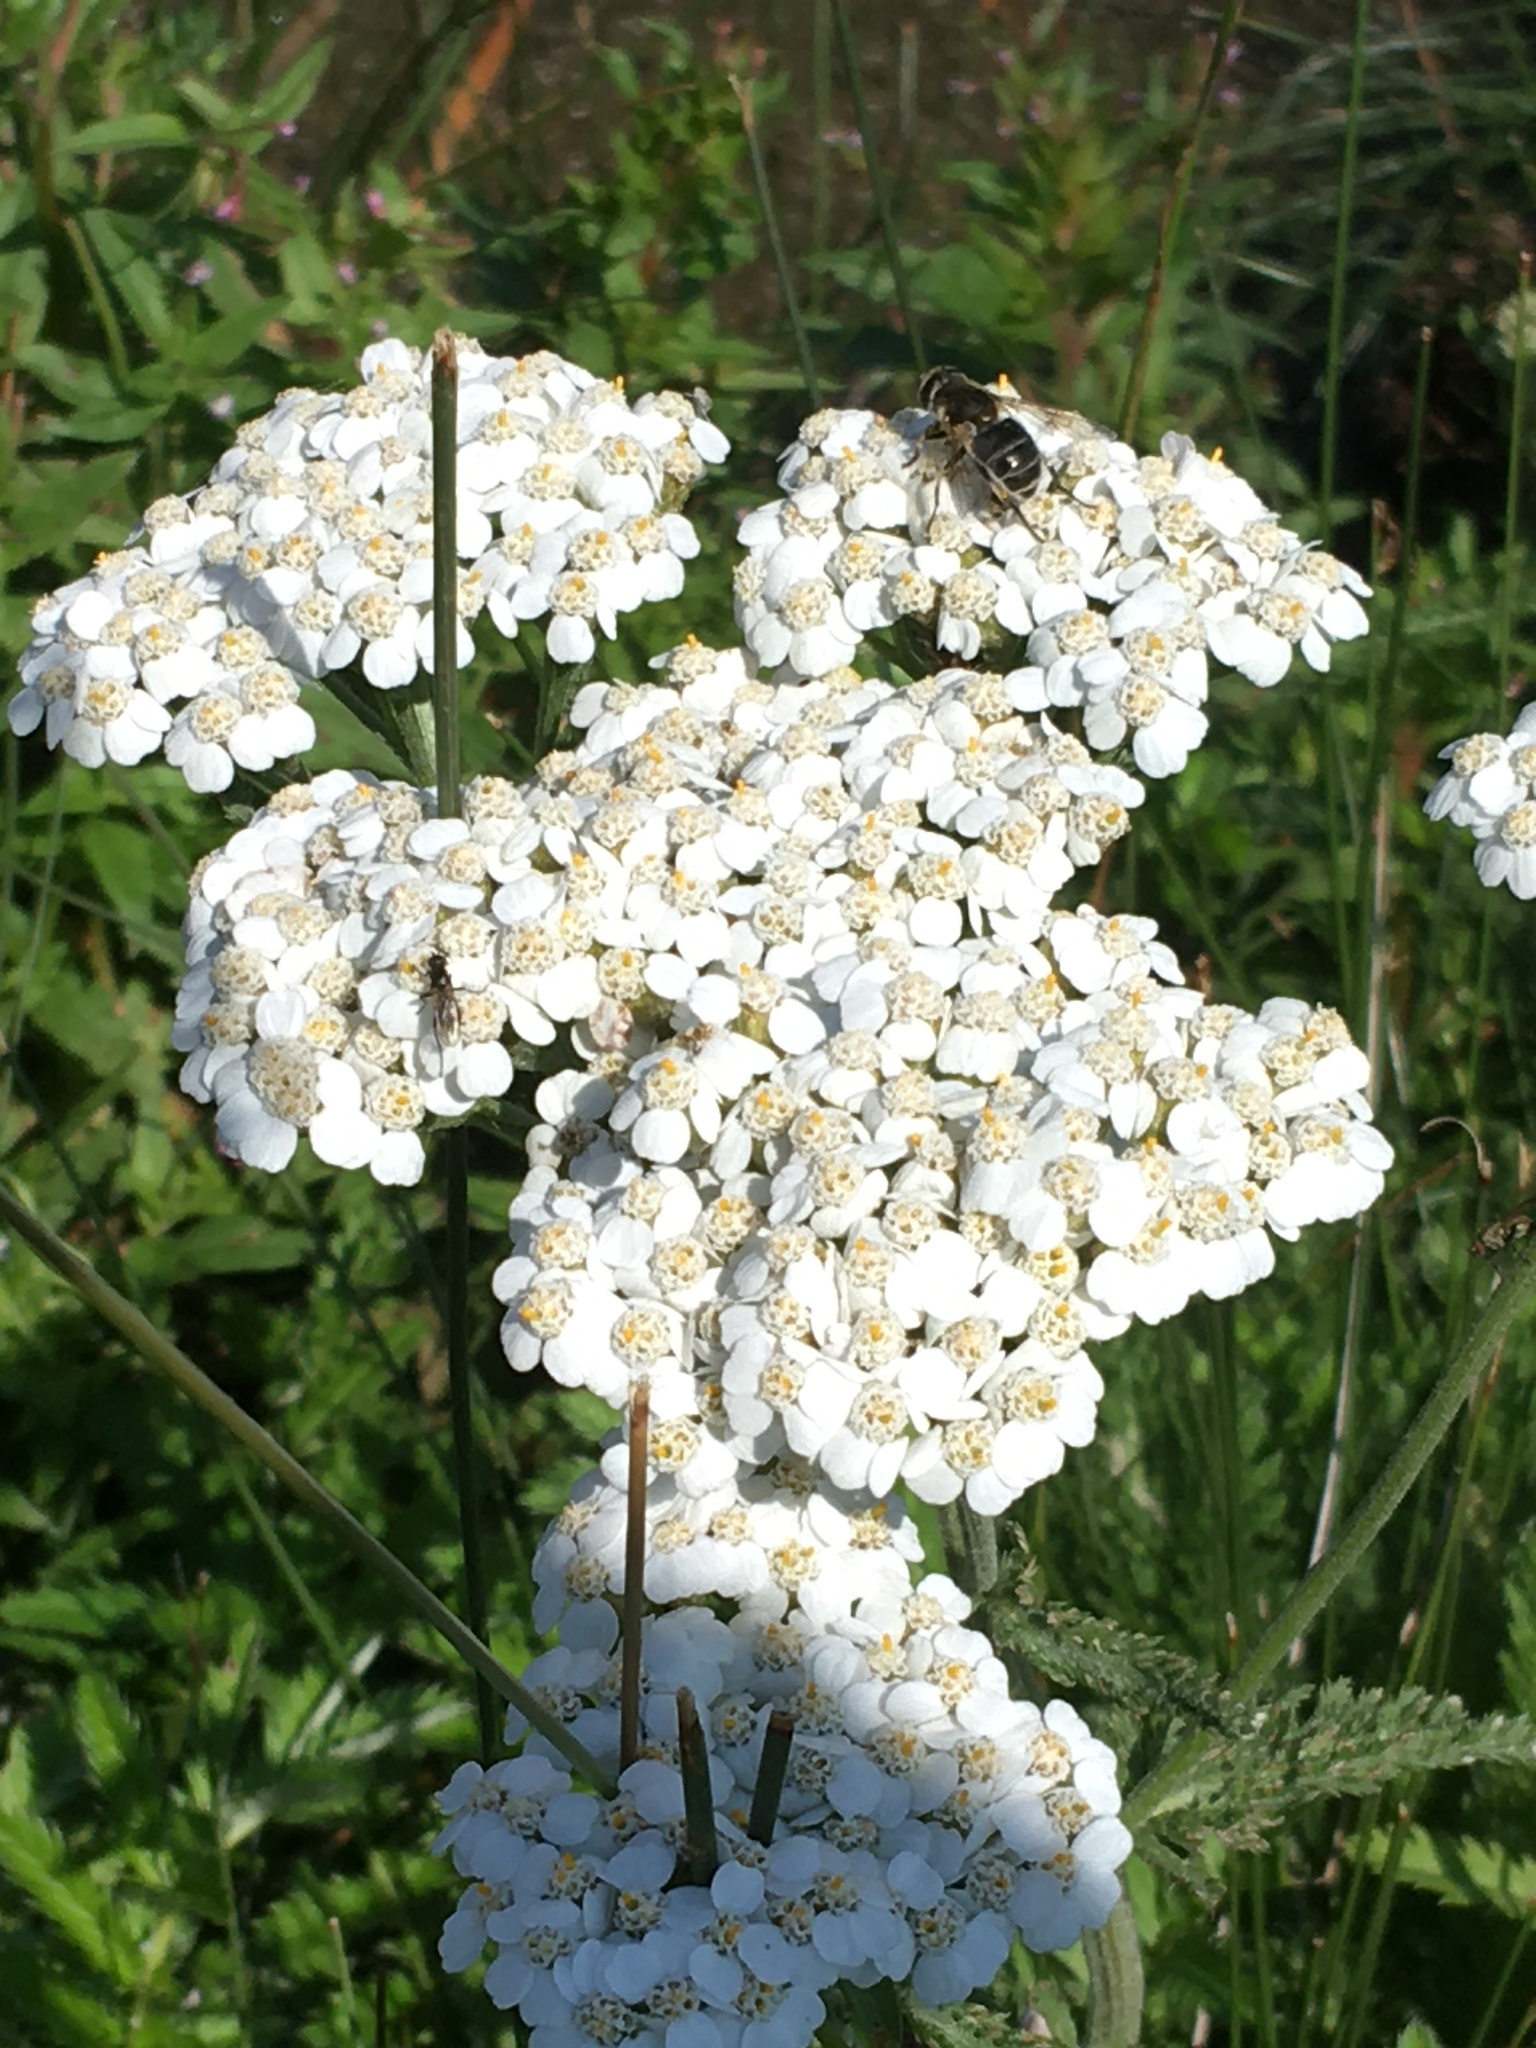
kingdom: Animalia
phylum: Arthropoda
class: Insecta
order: Diptera
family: Syrphidae
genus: Eristalis
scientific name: Eristalis arbustorum
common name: Hover fly
